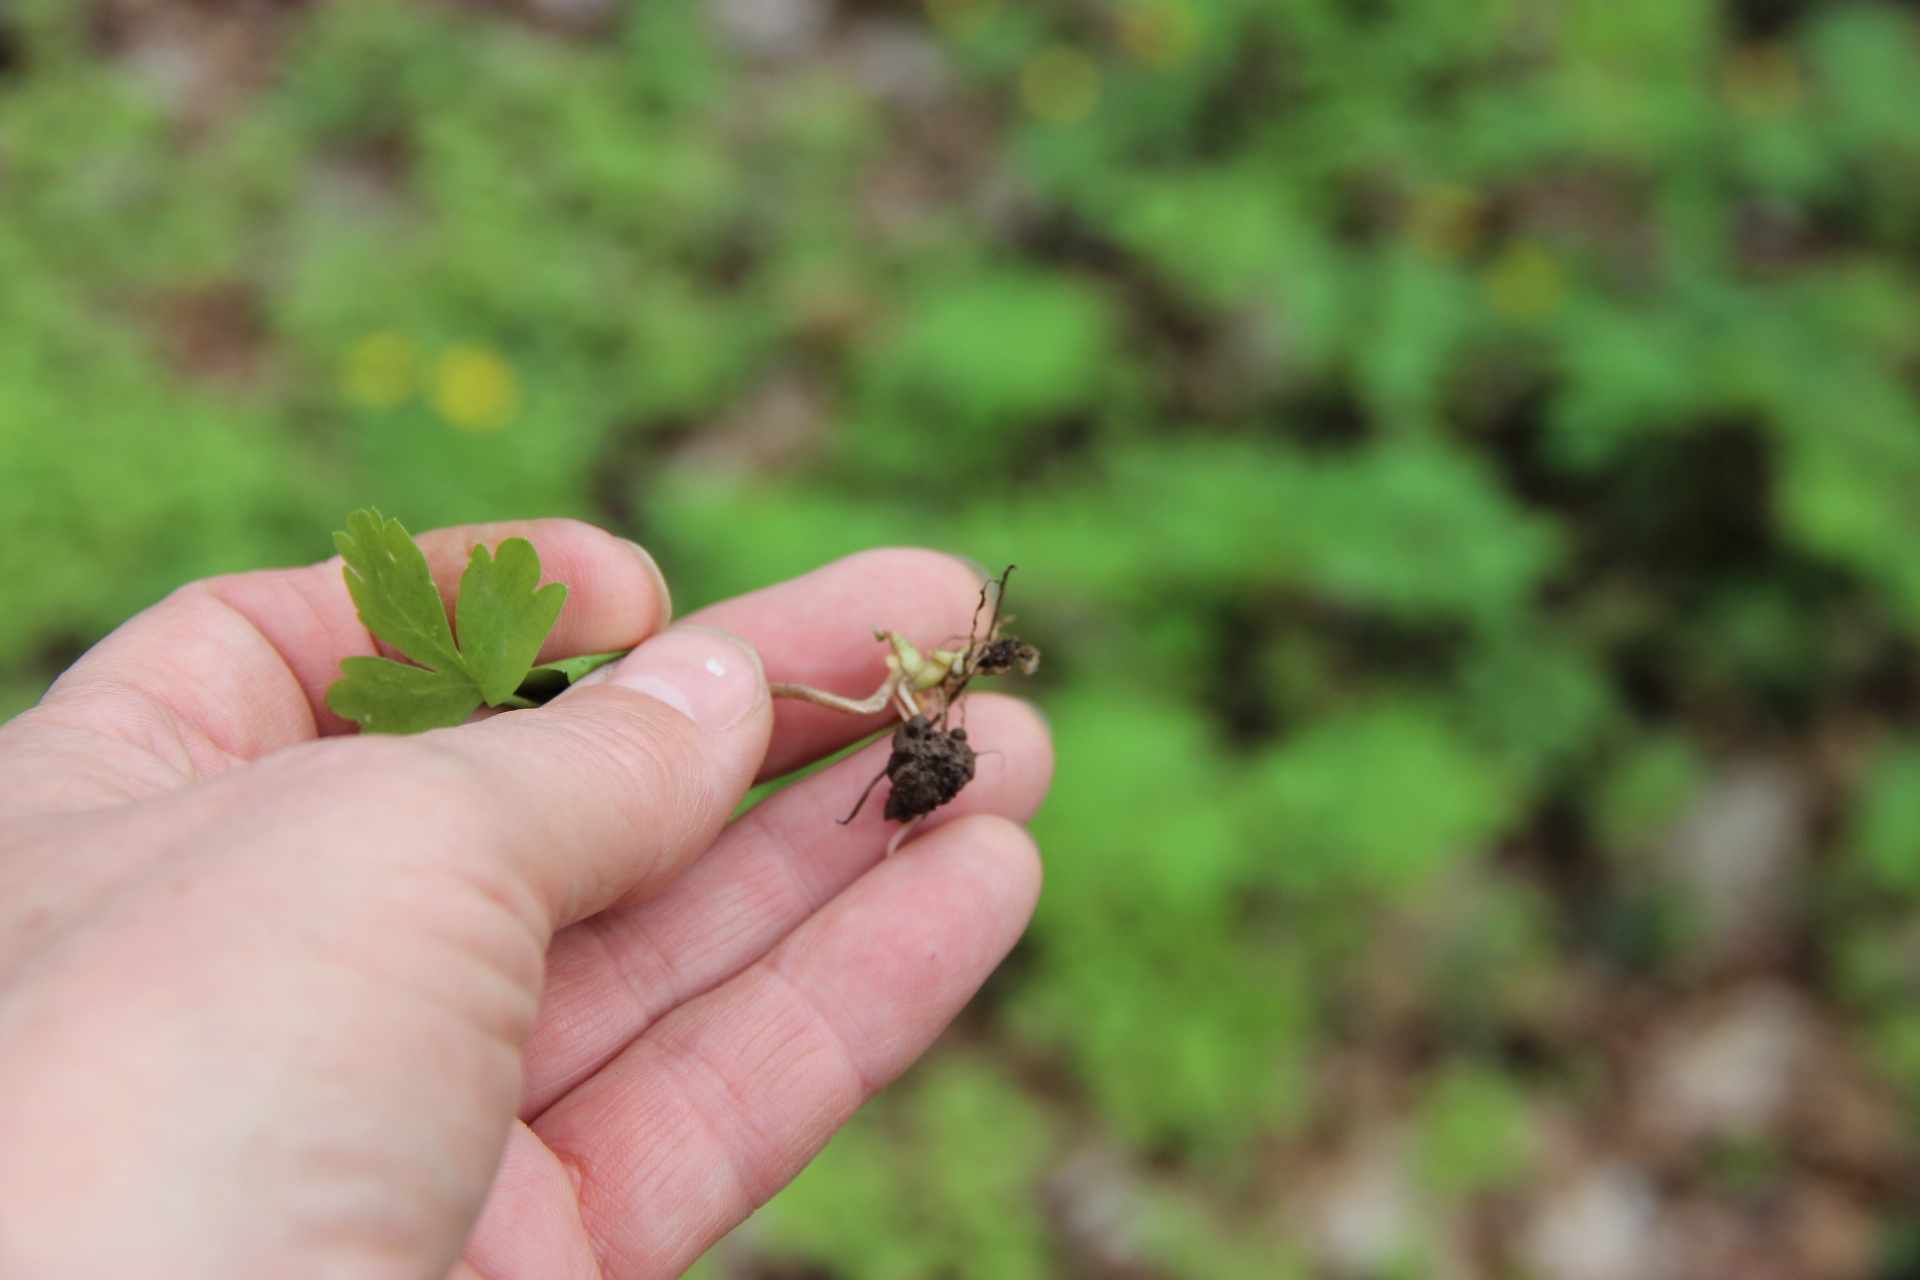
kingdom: Plantae
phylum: Tracheophyta
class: Magnoliopsida
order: Dipsacales
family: Viburnaceae
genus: Adoxa
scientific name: Adoxa moschatellina
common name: Moschatel
